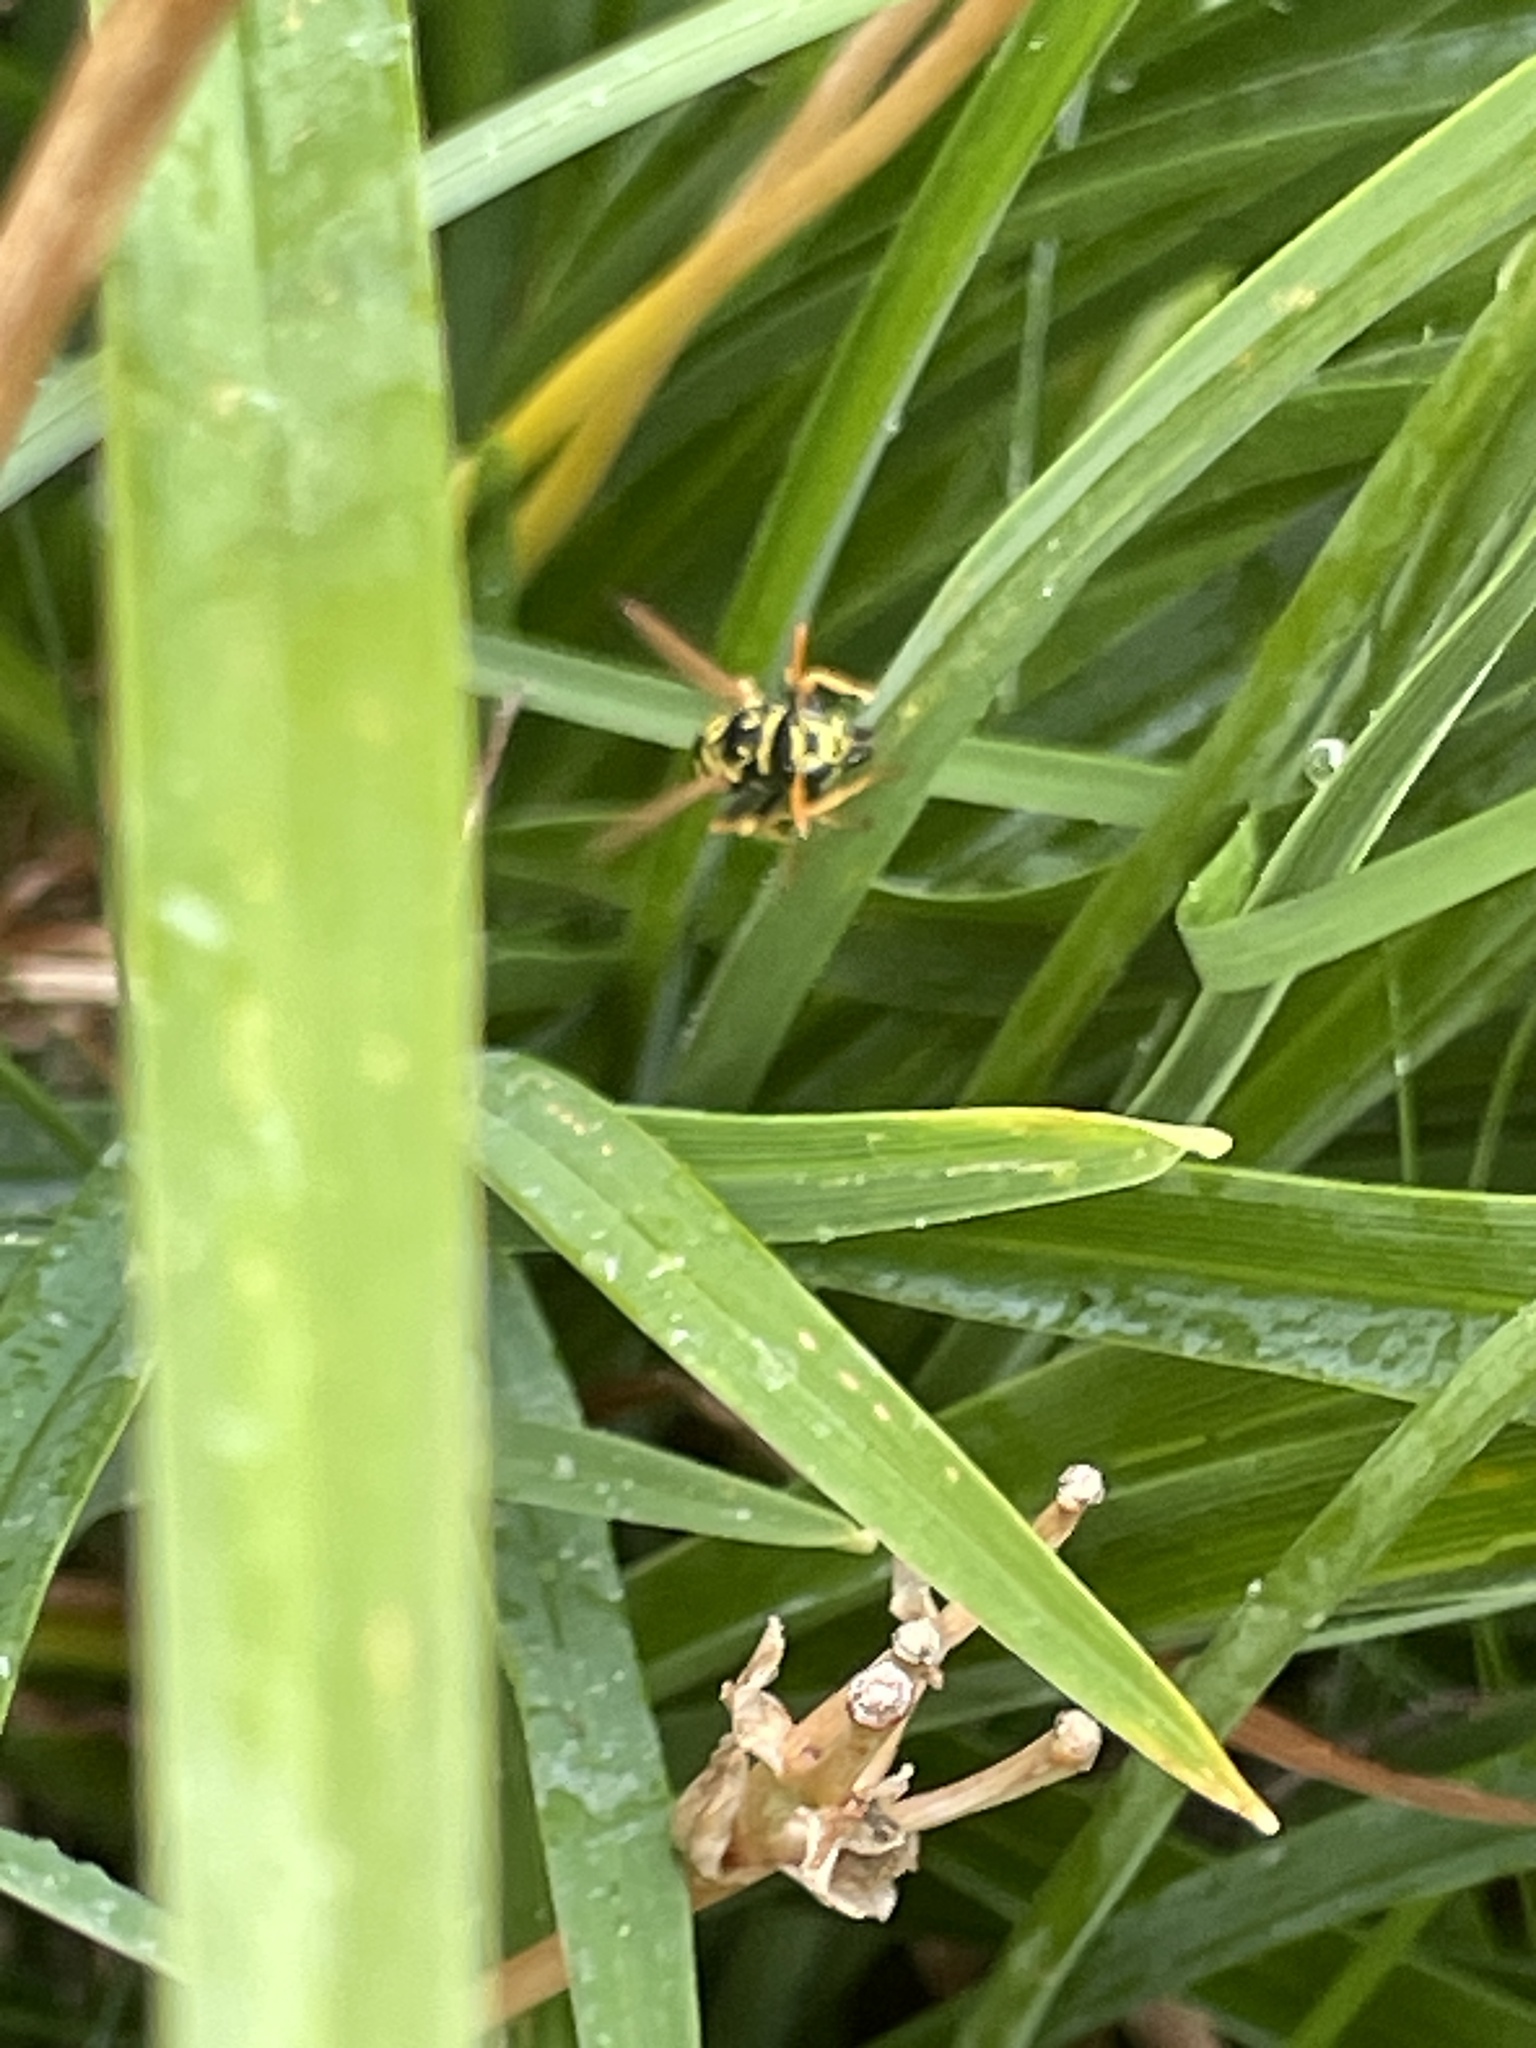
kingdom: Animalia
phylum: Arthropoda
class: Insecta
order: Hymenoptera
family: Eumenidae
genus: Polistes
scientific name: Polistes dominula
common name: Paper wasp
